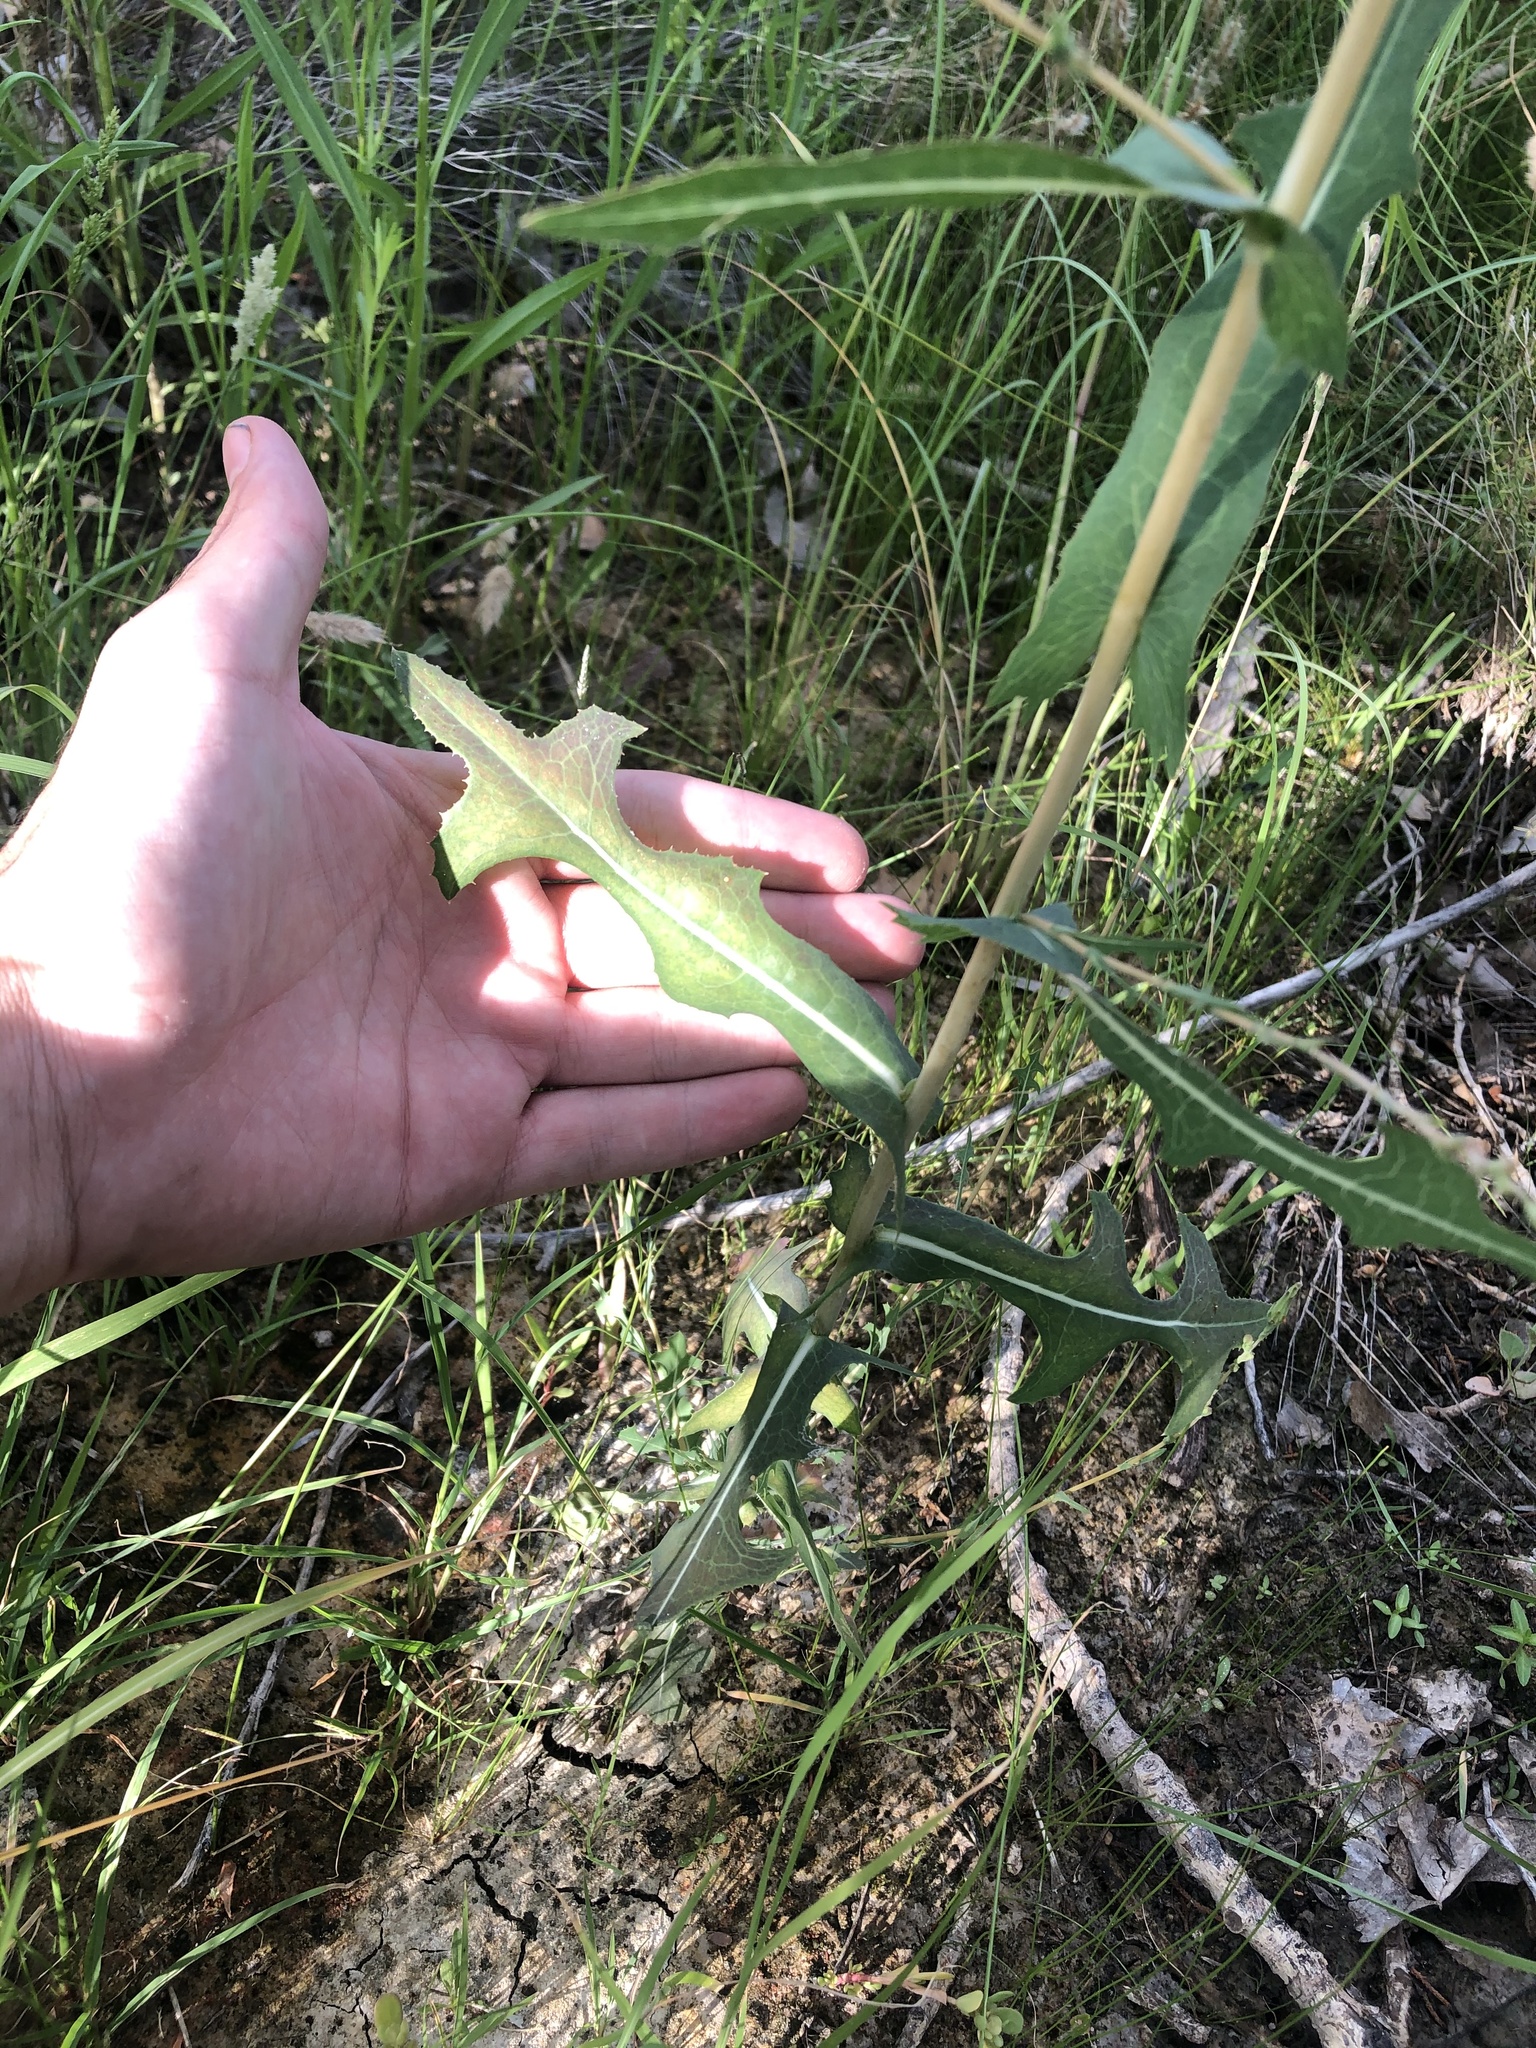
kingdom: Plantae
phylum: Tracheophyta
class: Magnoliopsida
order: Asterales
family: Asteraceae
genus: Lactuca
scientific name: Lactuca serriola
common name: Prickly lettuce
